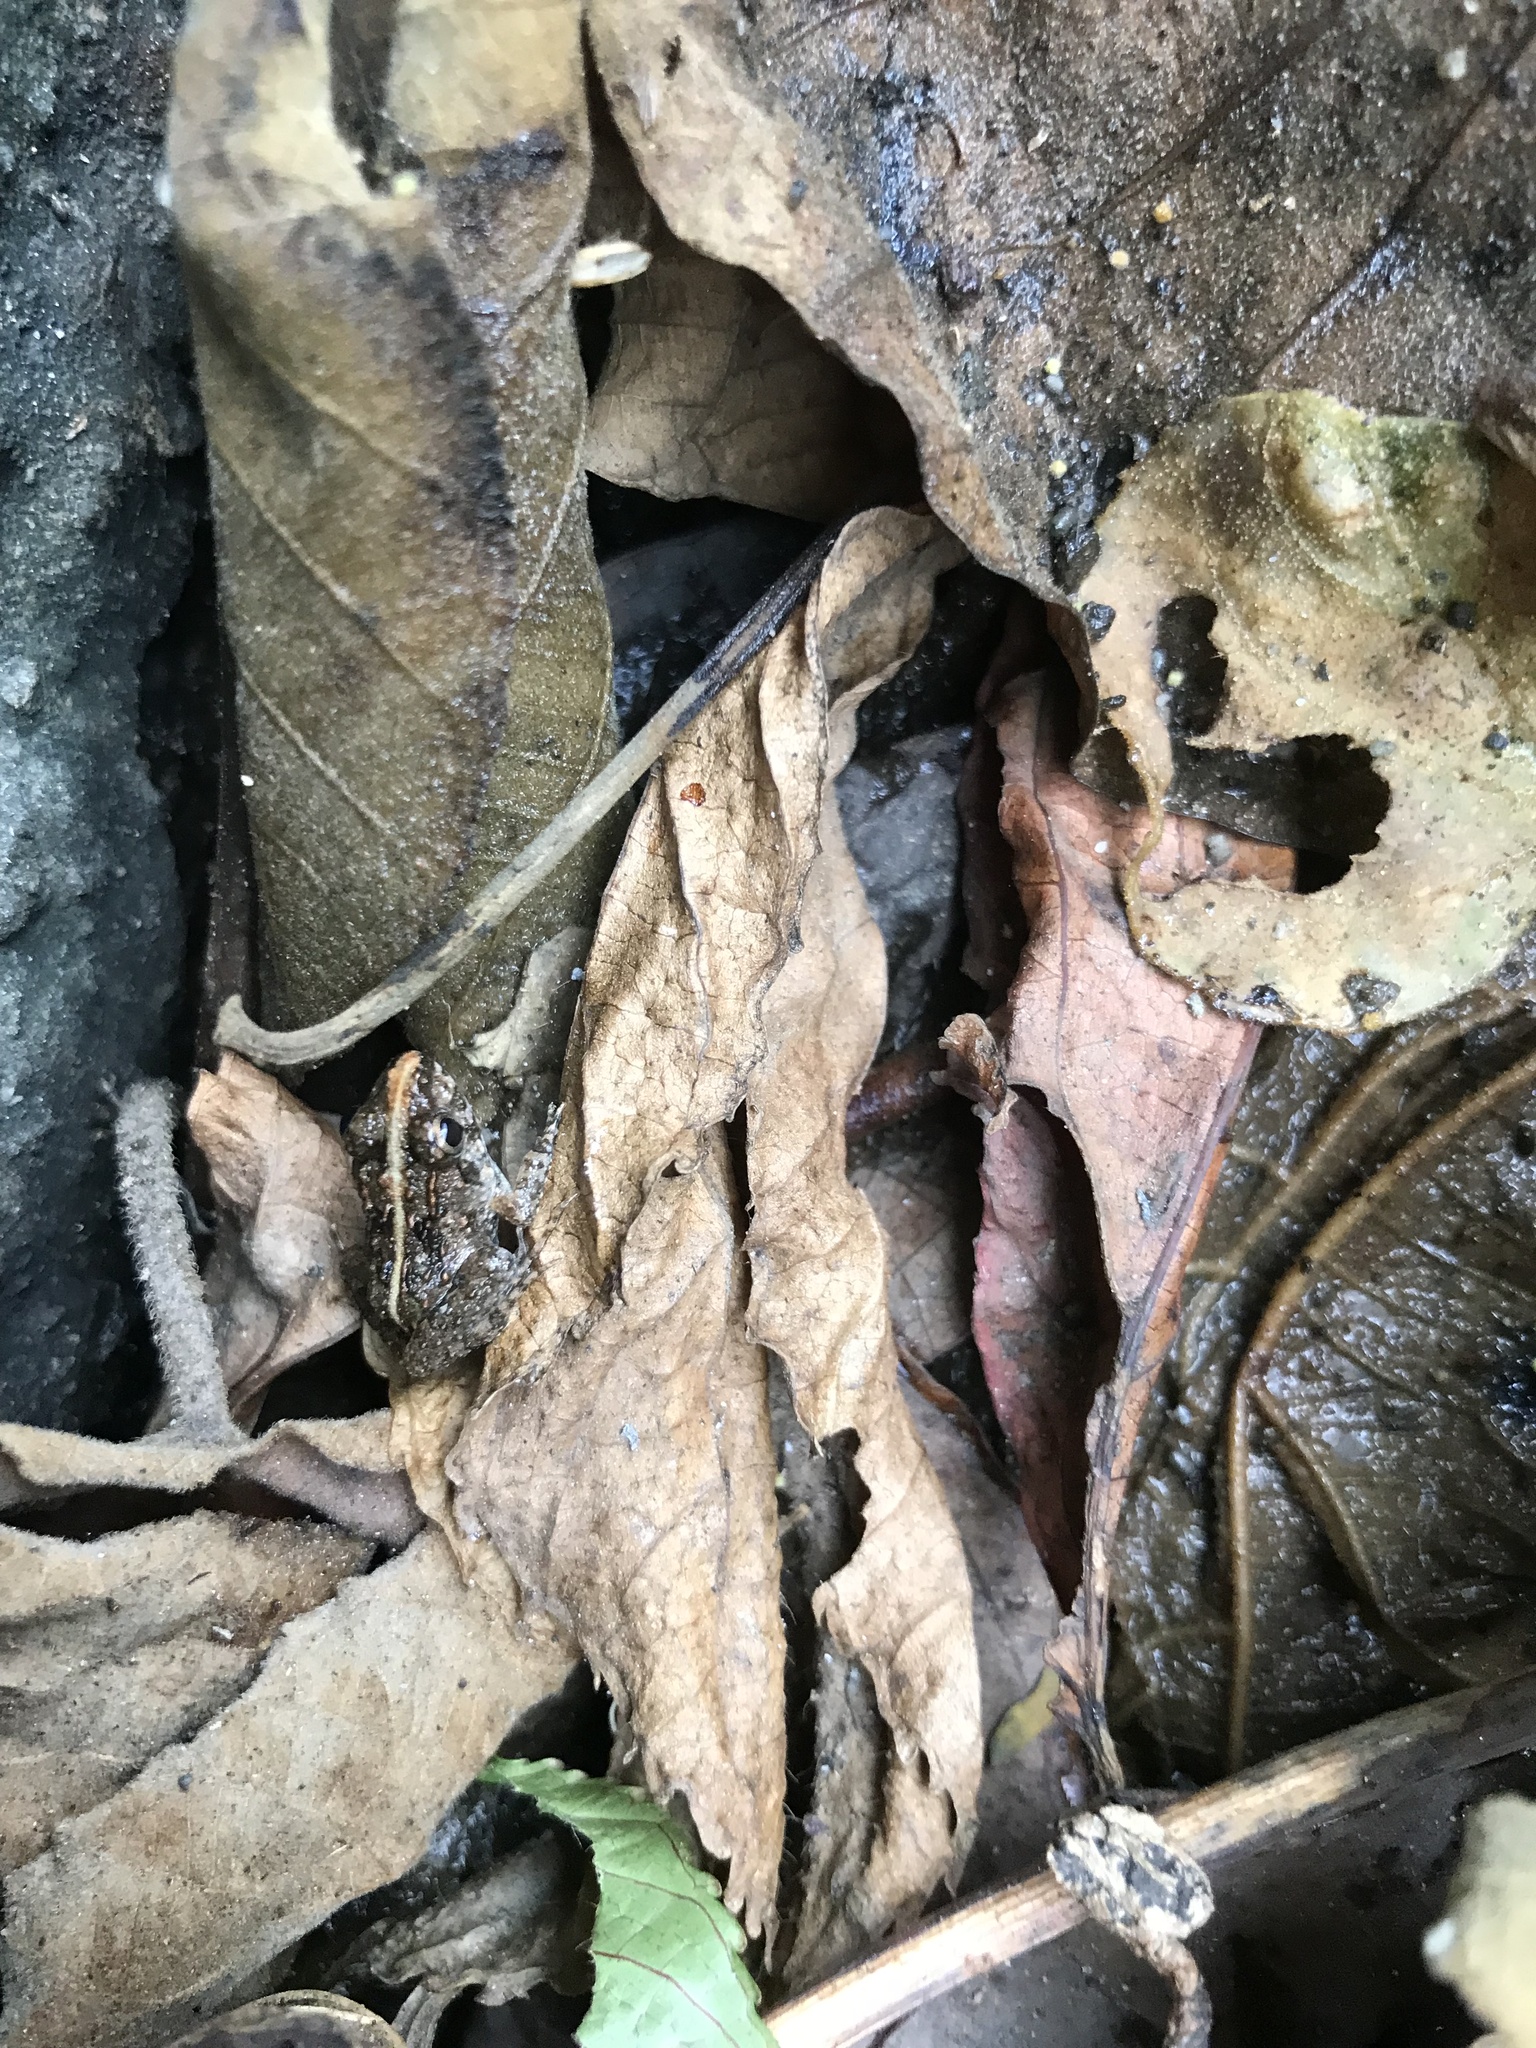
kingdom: Animalia
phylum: Chordata
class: Amphibia
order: Anura
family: Dicroglossidae
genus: Fejervarya
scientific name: Fejervarya limnocharis
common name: Asian grass frog/common pond frog/field frog/grass frog/indian rice frog
